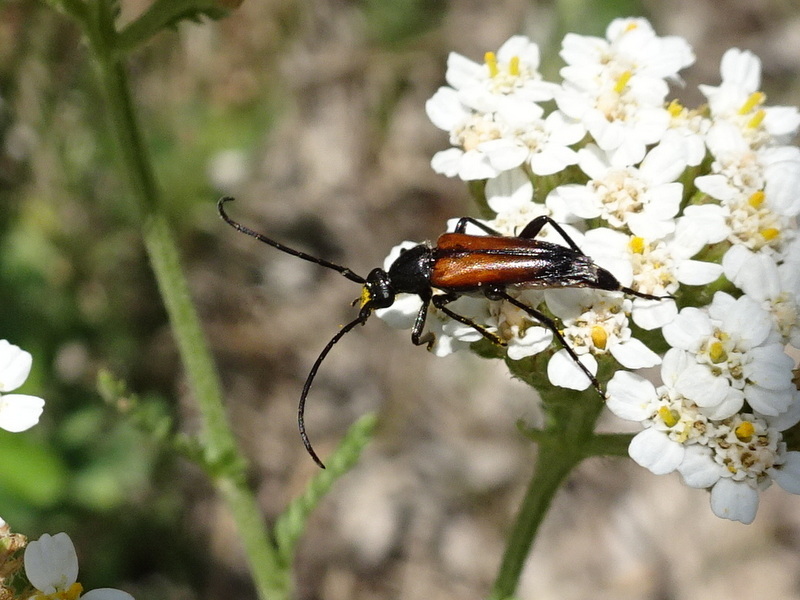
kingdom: Animalia
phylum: Arthropoda
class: Insecta
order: Coleoptera
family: Cerambycidae
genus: Stenurella
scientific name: Stenurella bifasciata
